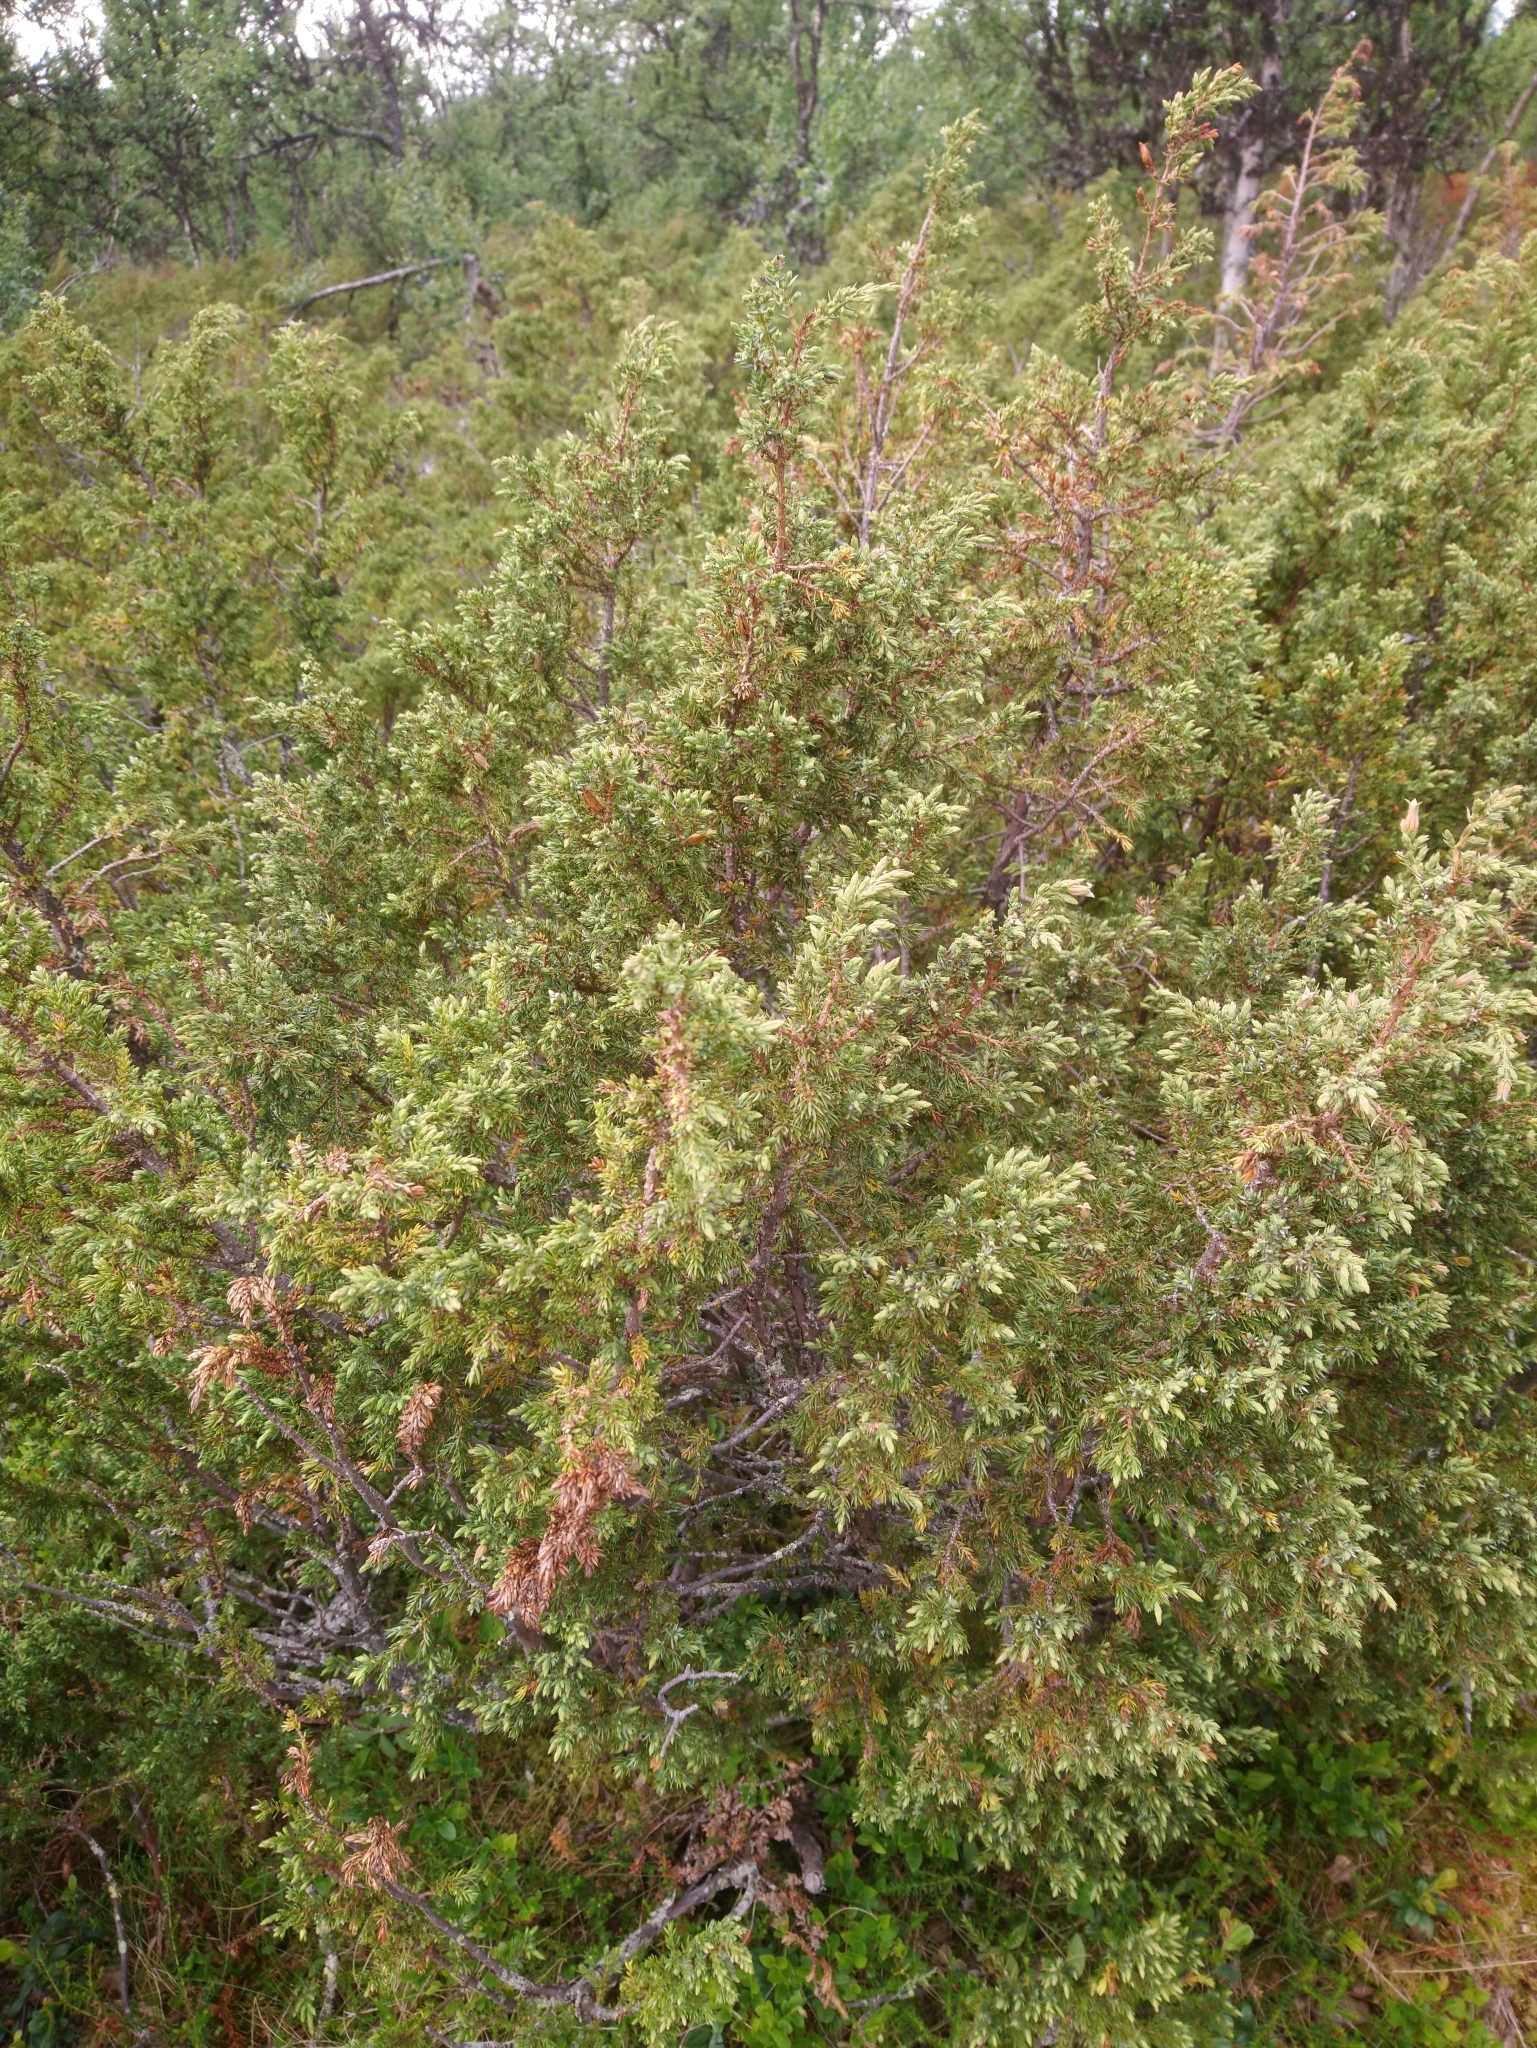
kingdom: Plantae
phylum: Tracheophyta
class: Pinopsida
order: Pinales
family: Cupressaceae
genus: Juniperus
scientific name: Juniperus communis
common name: Common juniper
